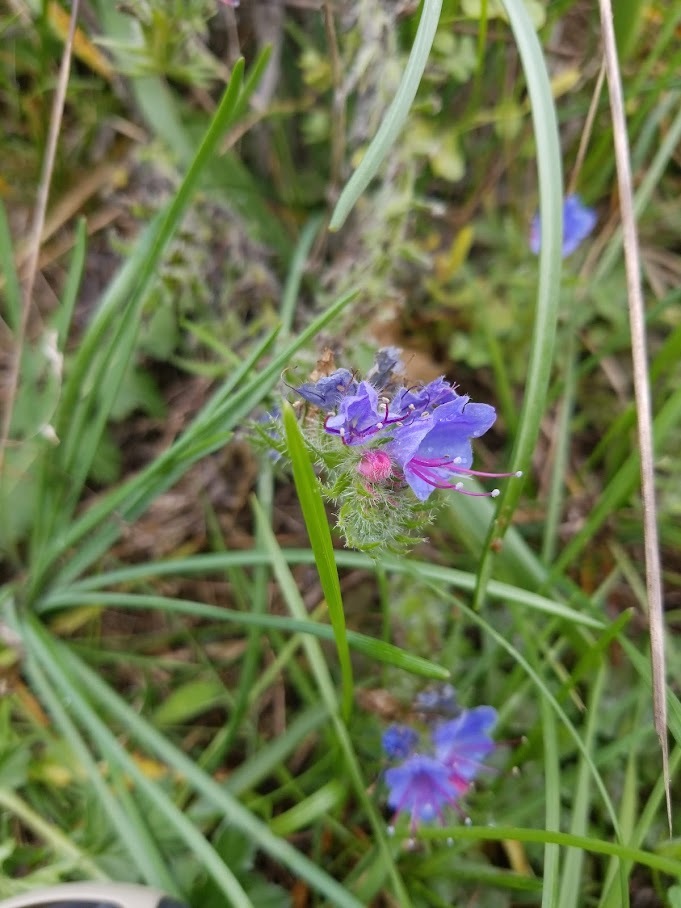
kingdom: Plantae
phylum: Tracheophyta
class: Magnoliopsida
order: Boraginales
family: Boraginaceae
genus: Echium
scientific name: Echium vulgare
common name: Common viper's bugloss
